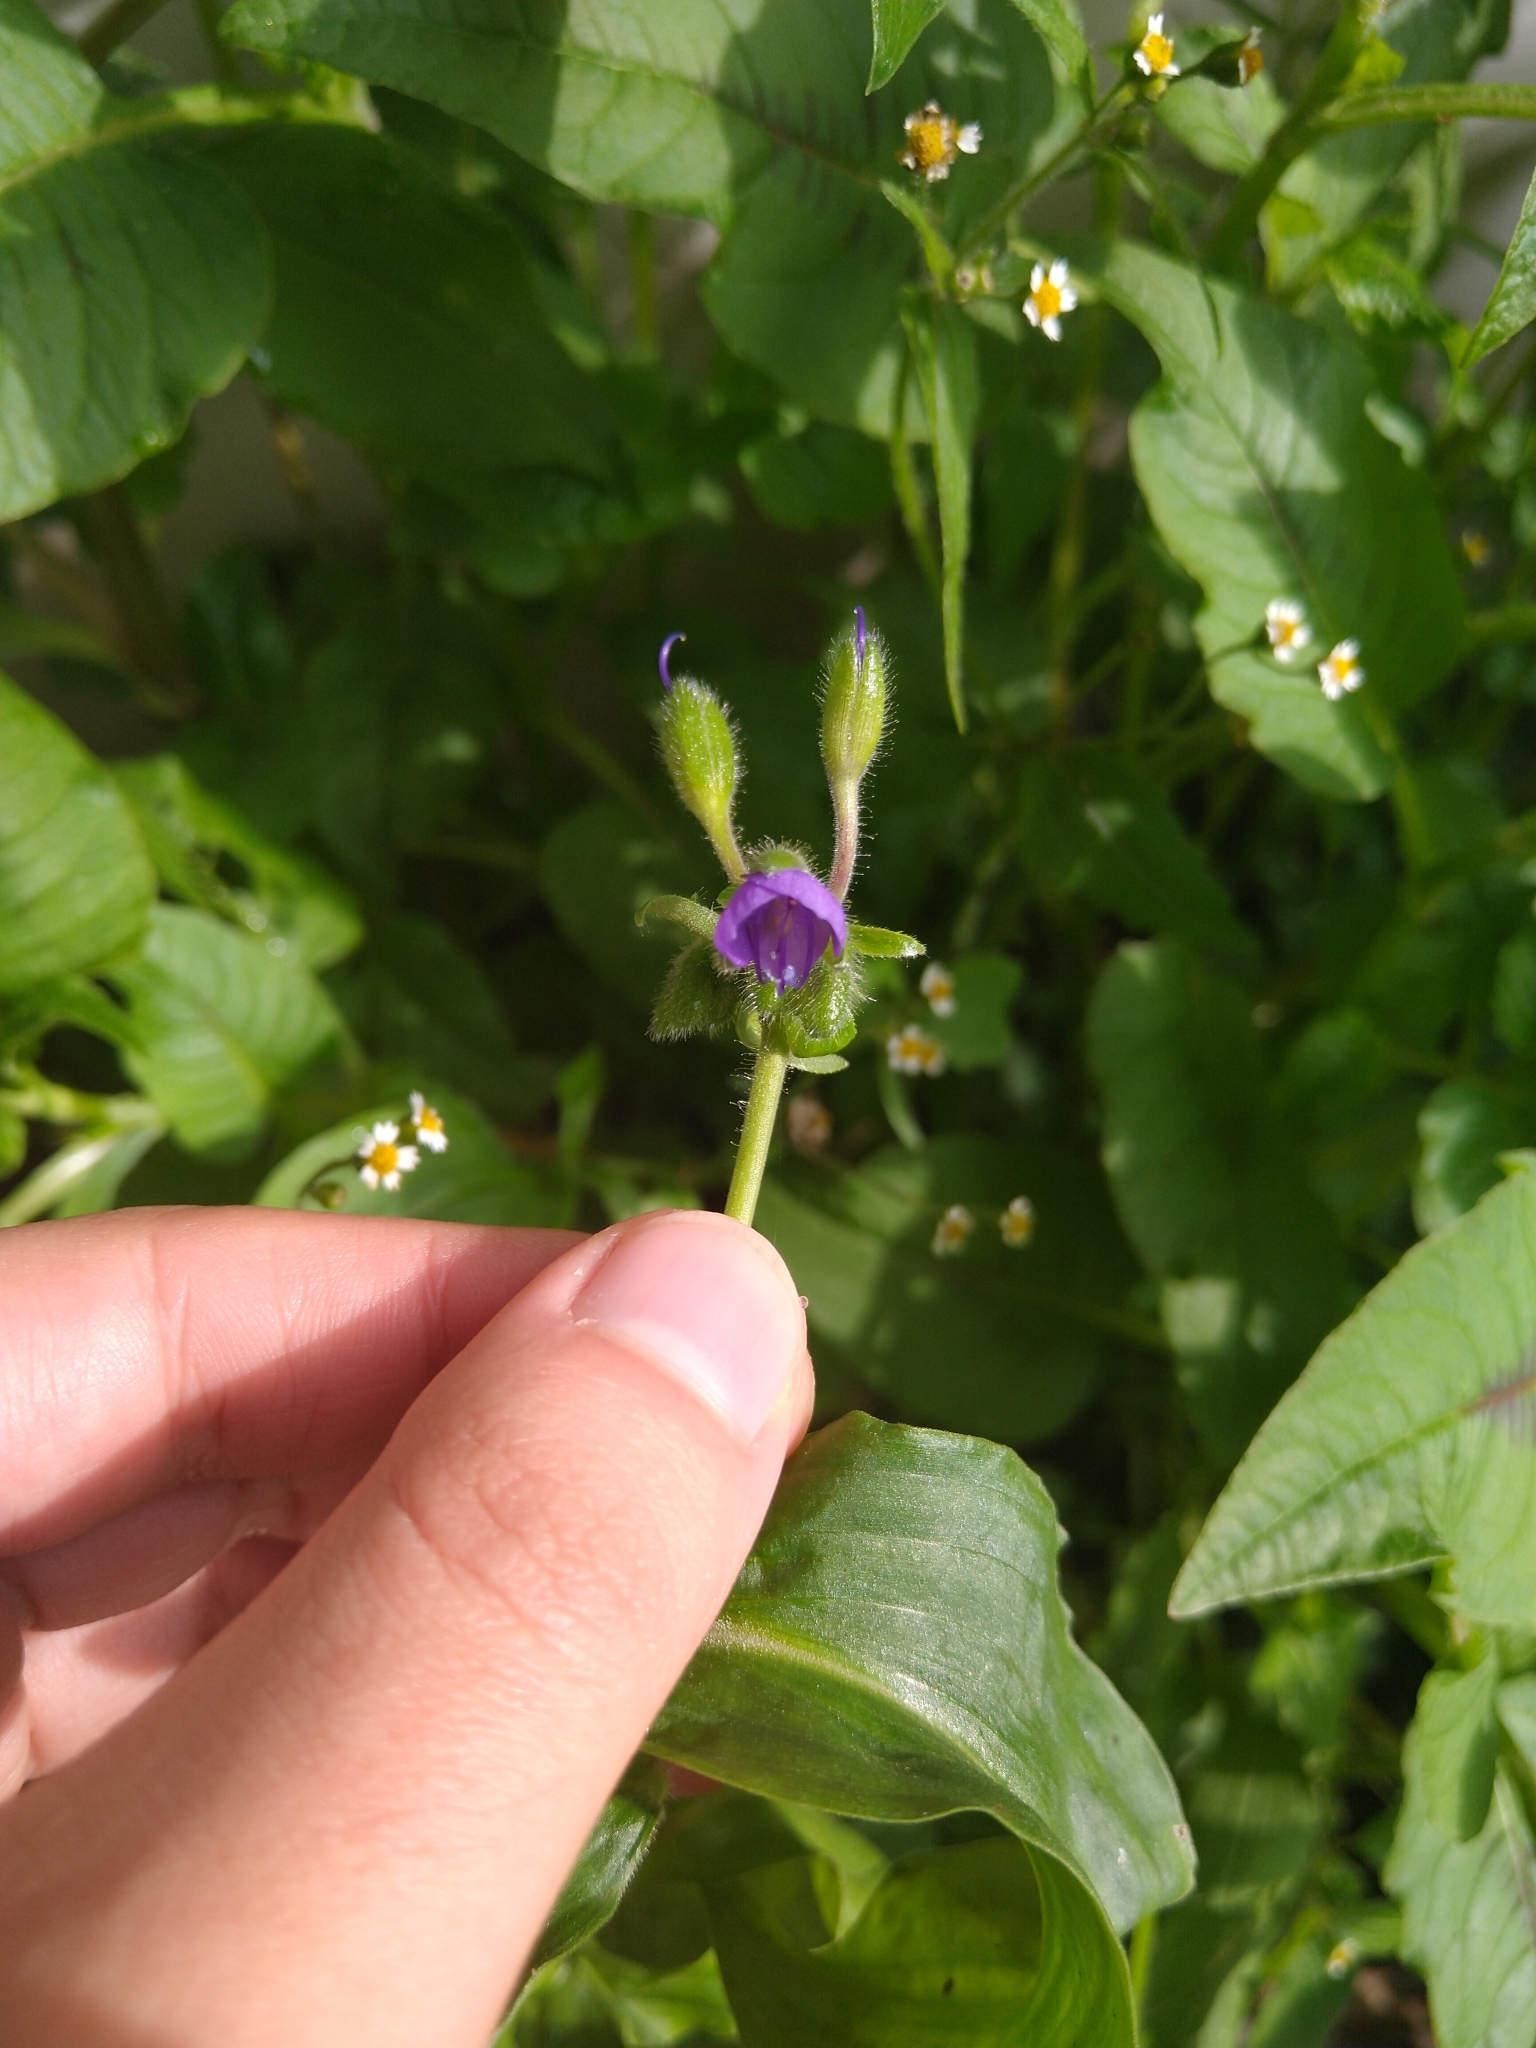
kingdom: Plantae
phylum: Tracheophyta
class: Liliopsida
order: Commelinales
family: Commelinaceae
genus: Tinantia
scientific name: Tinantia erecta
